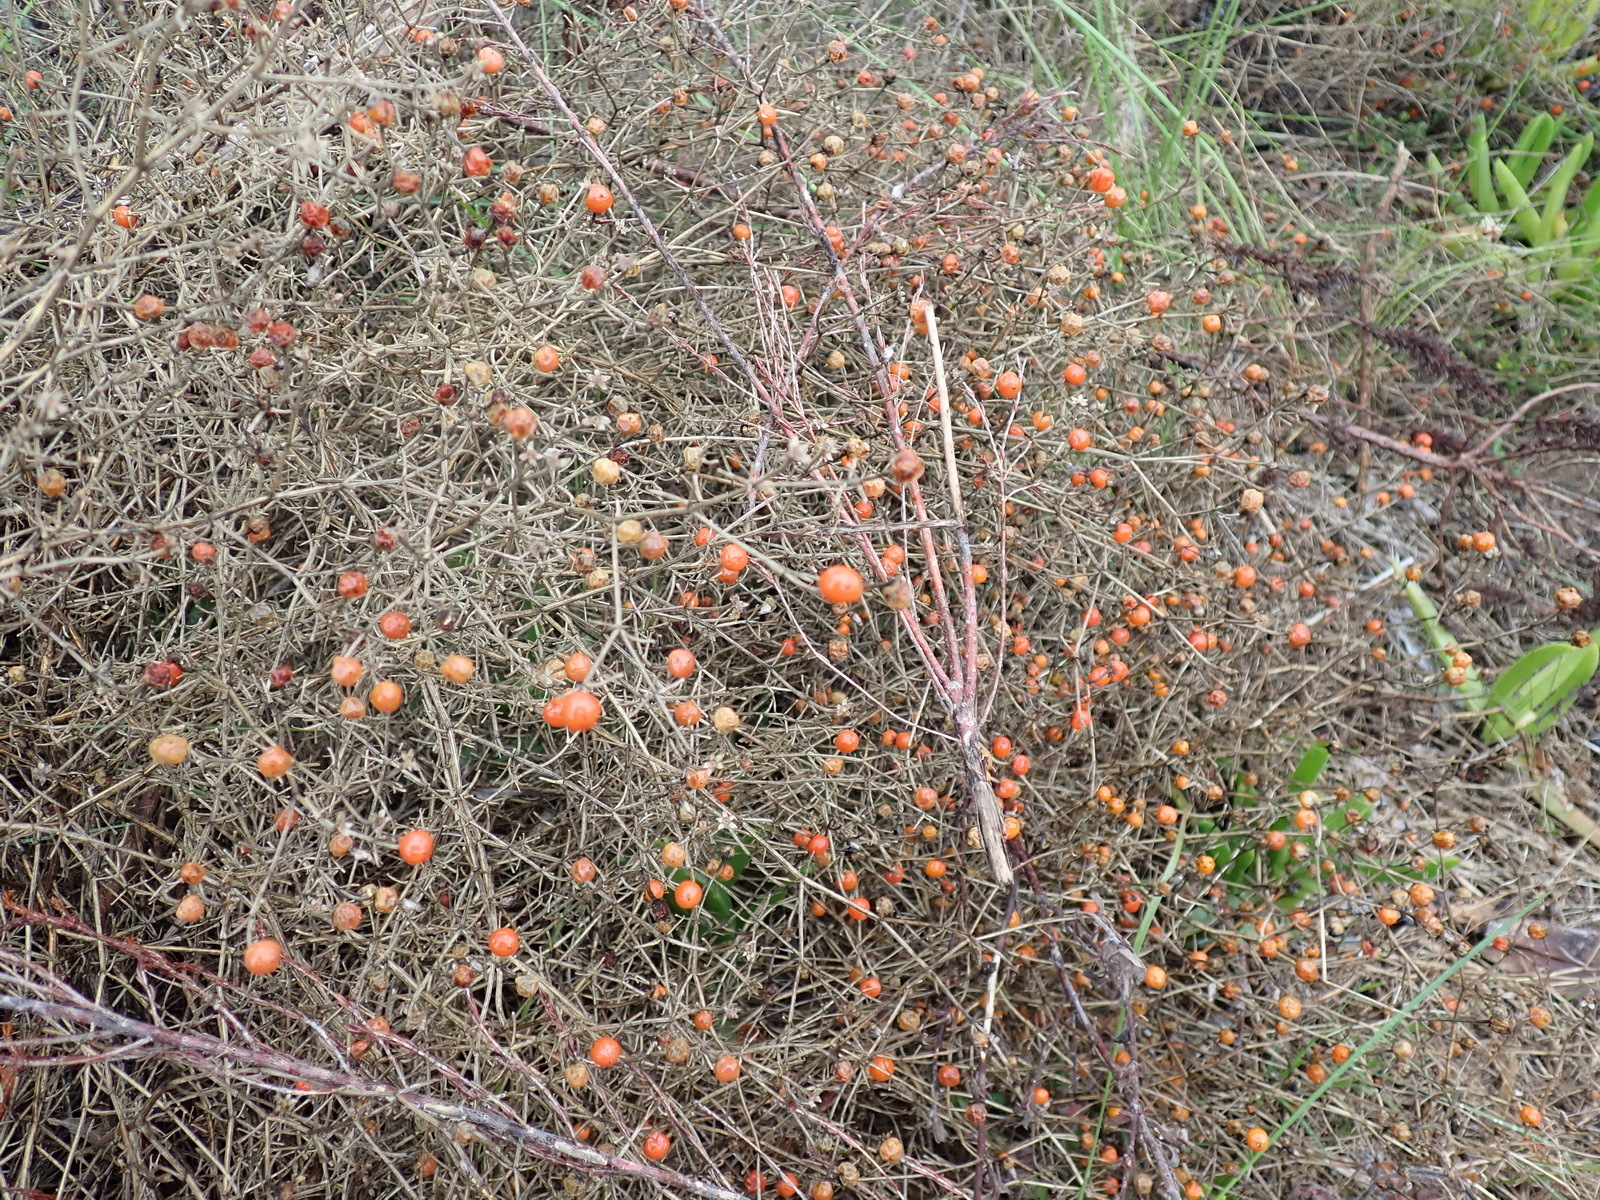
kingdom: Plantae
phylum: Tracheophyta
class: Magnoliopsida
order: Gentianales
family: Gentianaceae
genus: Chironia
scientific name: Chironia baccifera
